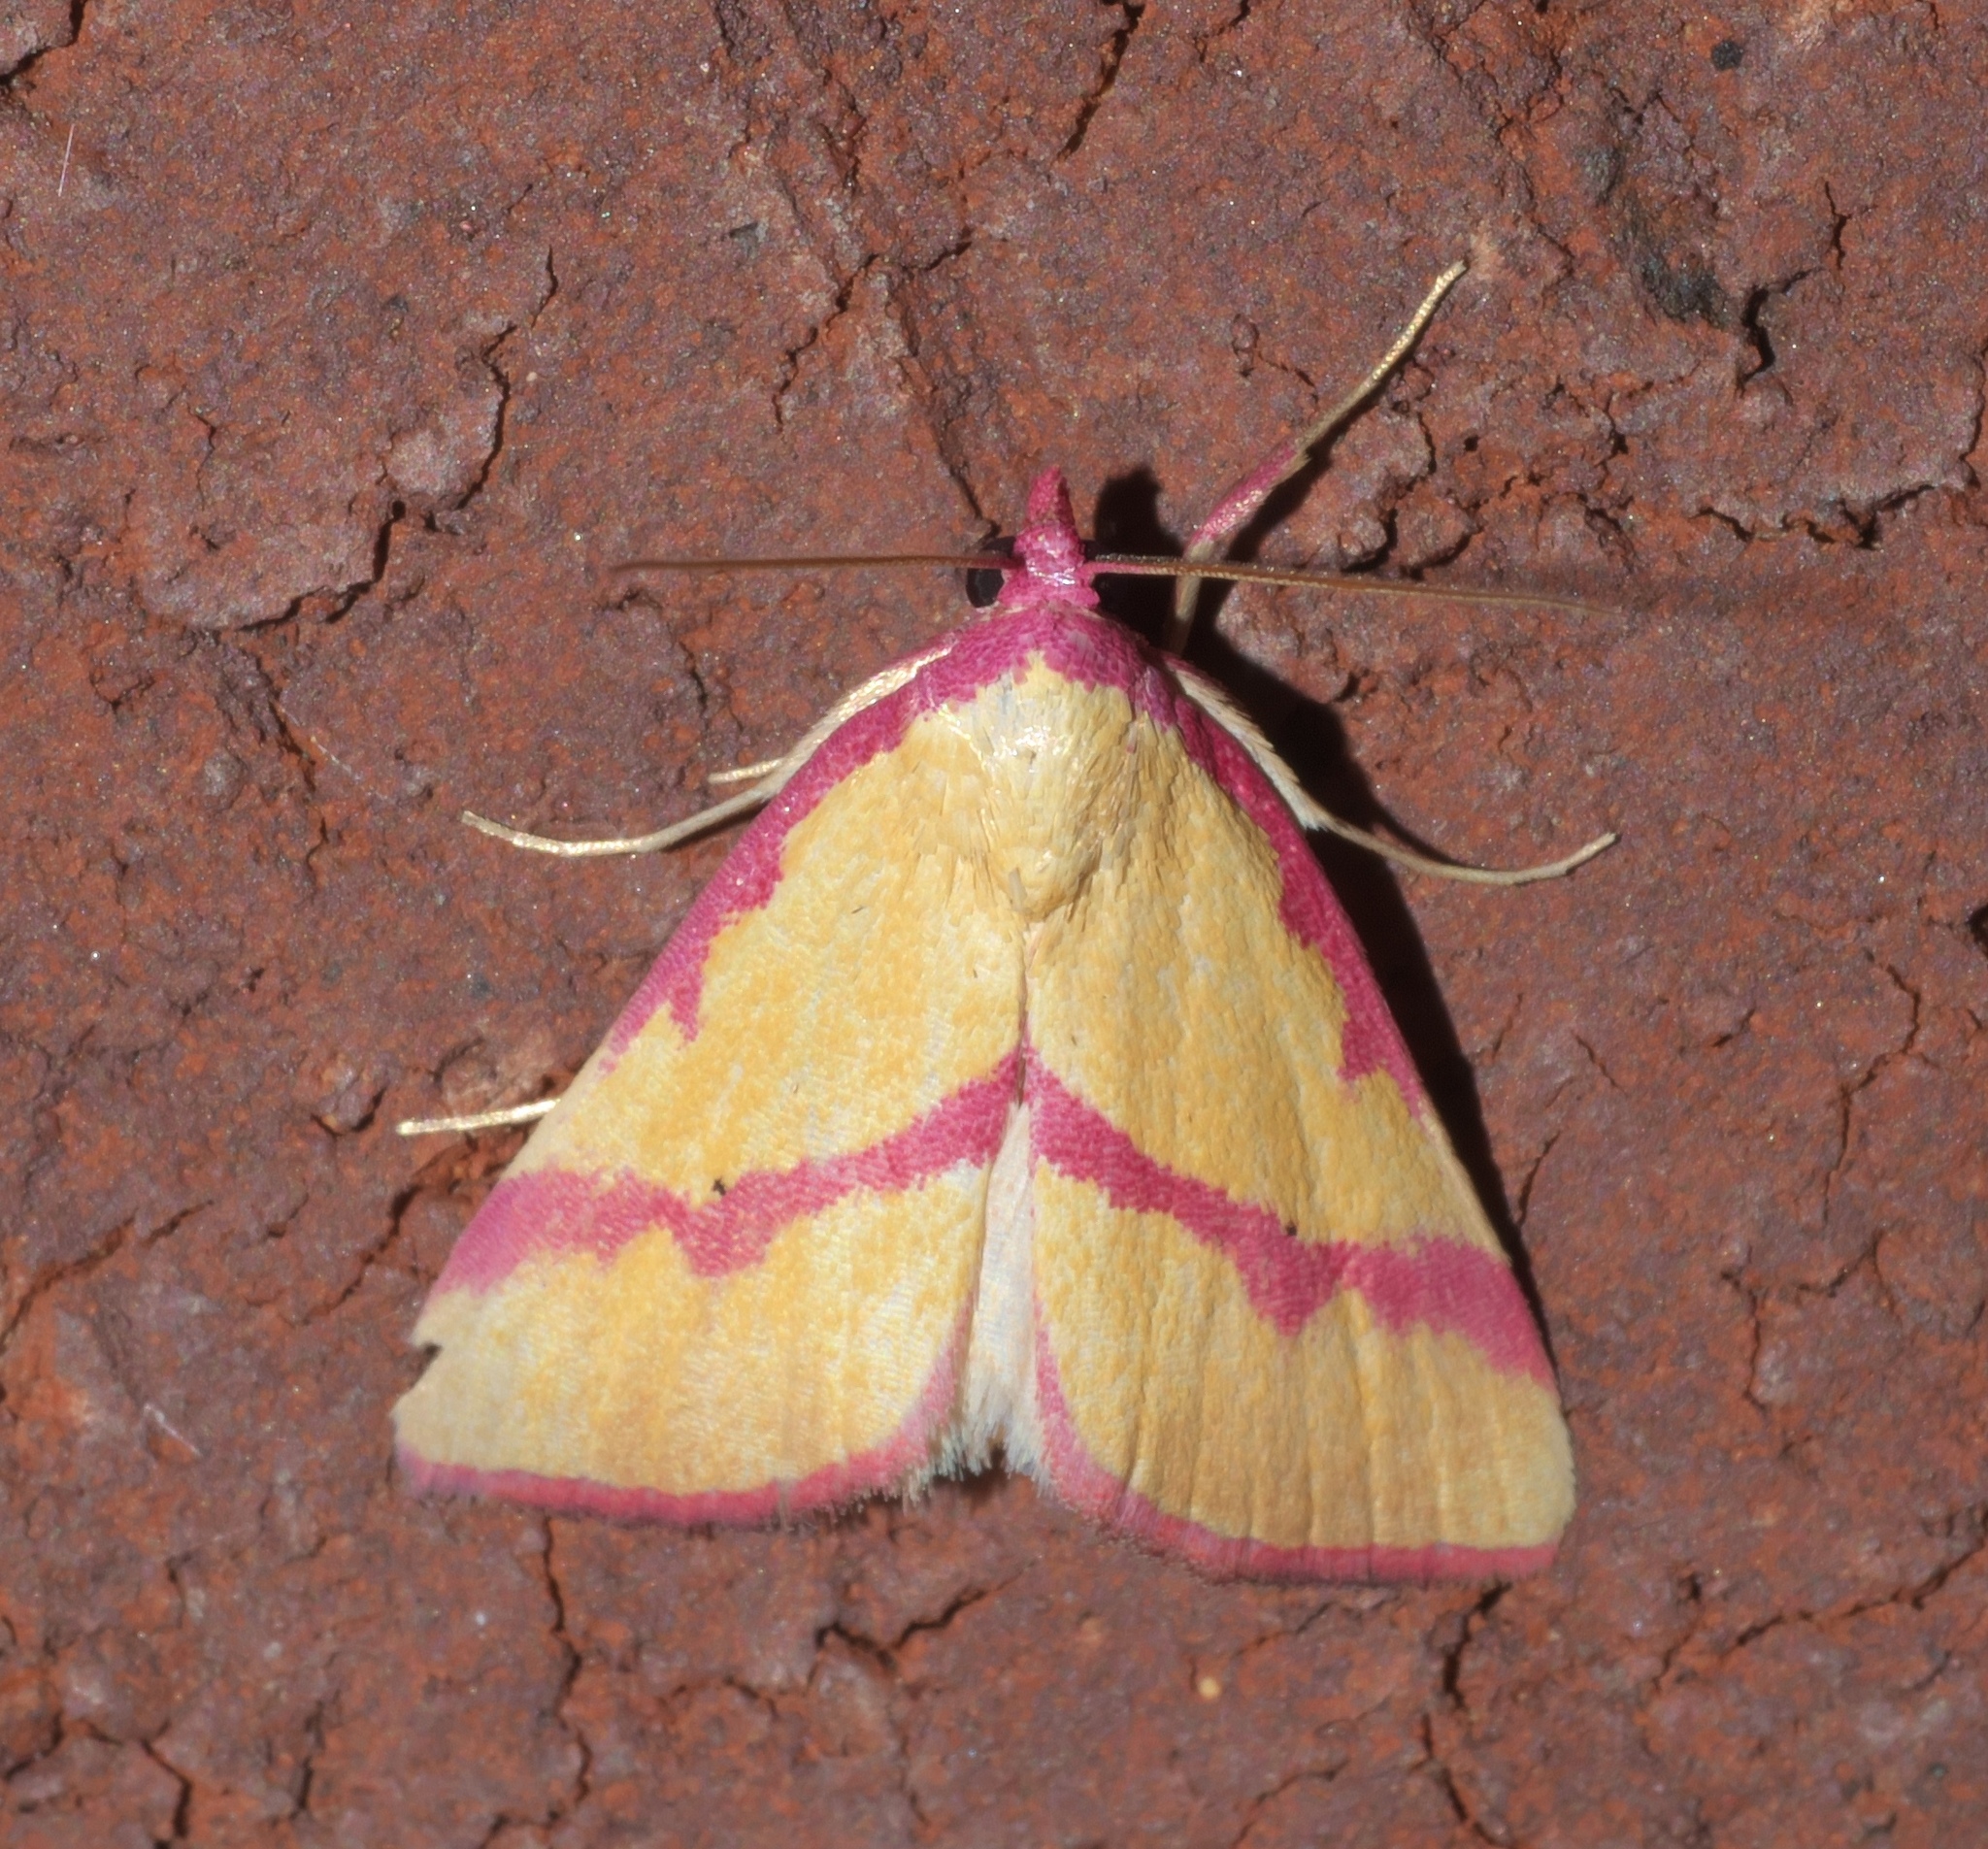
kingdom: Animalia
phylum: Arthropoda
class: Insecta
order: Lepidoptera
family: Erebidae
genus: Phytometra
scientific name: Phytometra ernestinana
